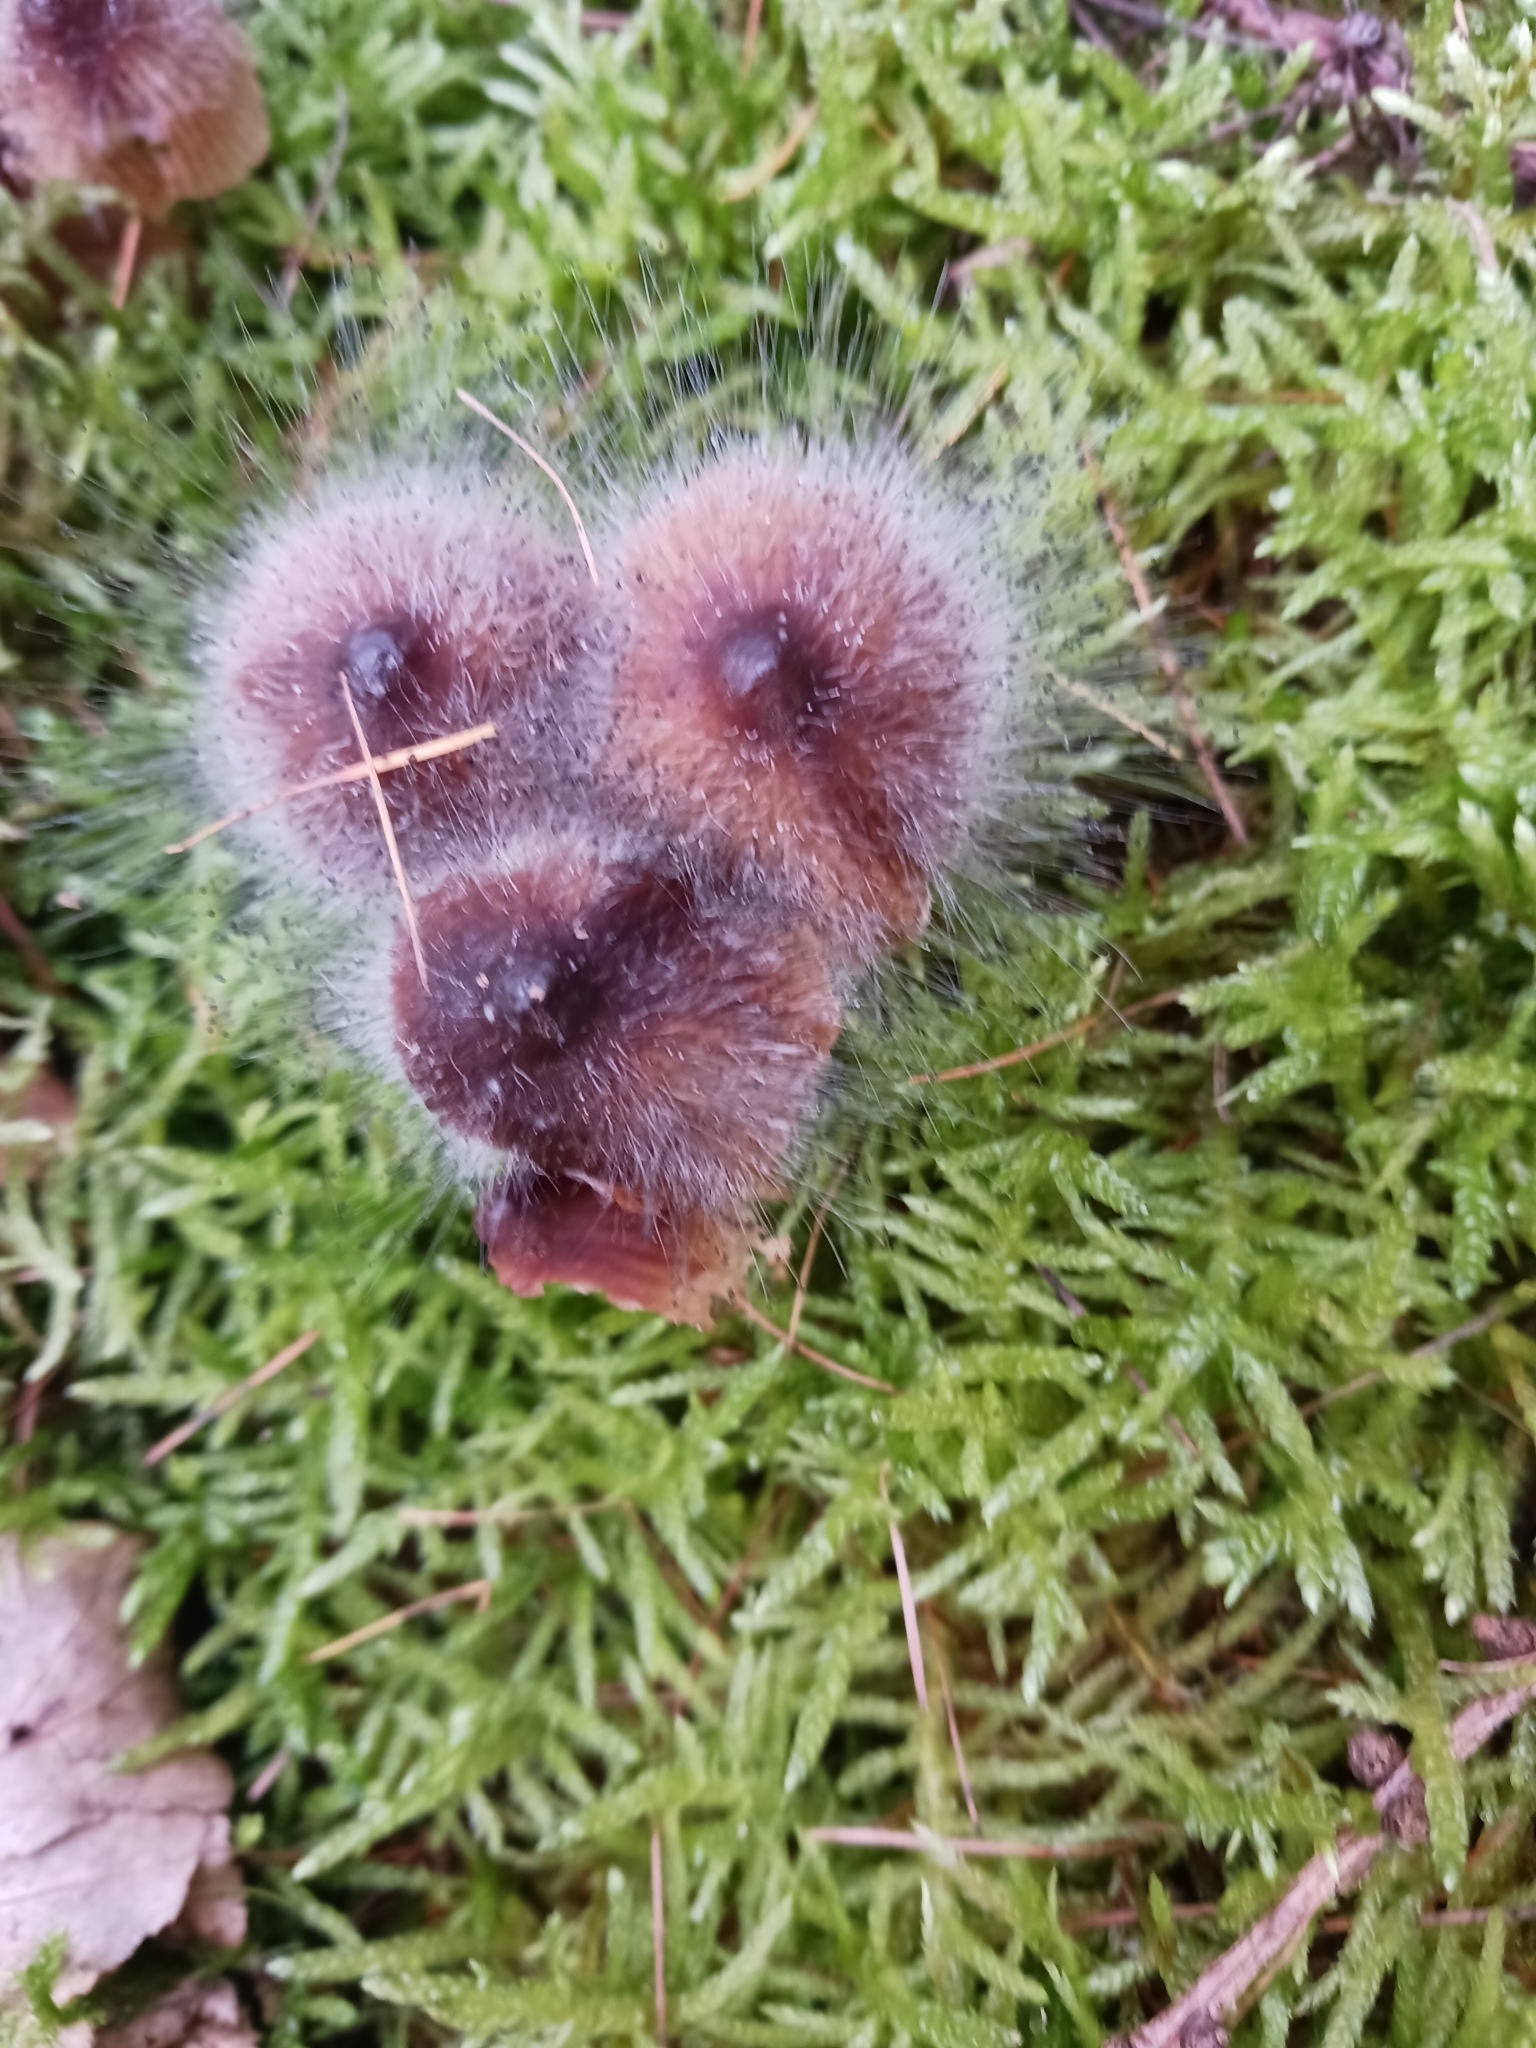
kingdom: Fungi
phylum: Mucoromycota
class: Mucoromycetes
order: Mucorales
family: Phycomycetaceae
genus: Spinellus
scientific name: Spinellus fusiger
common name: Bonnet mould
